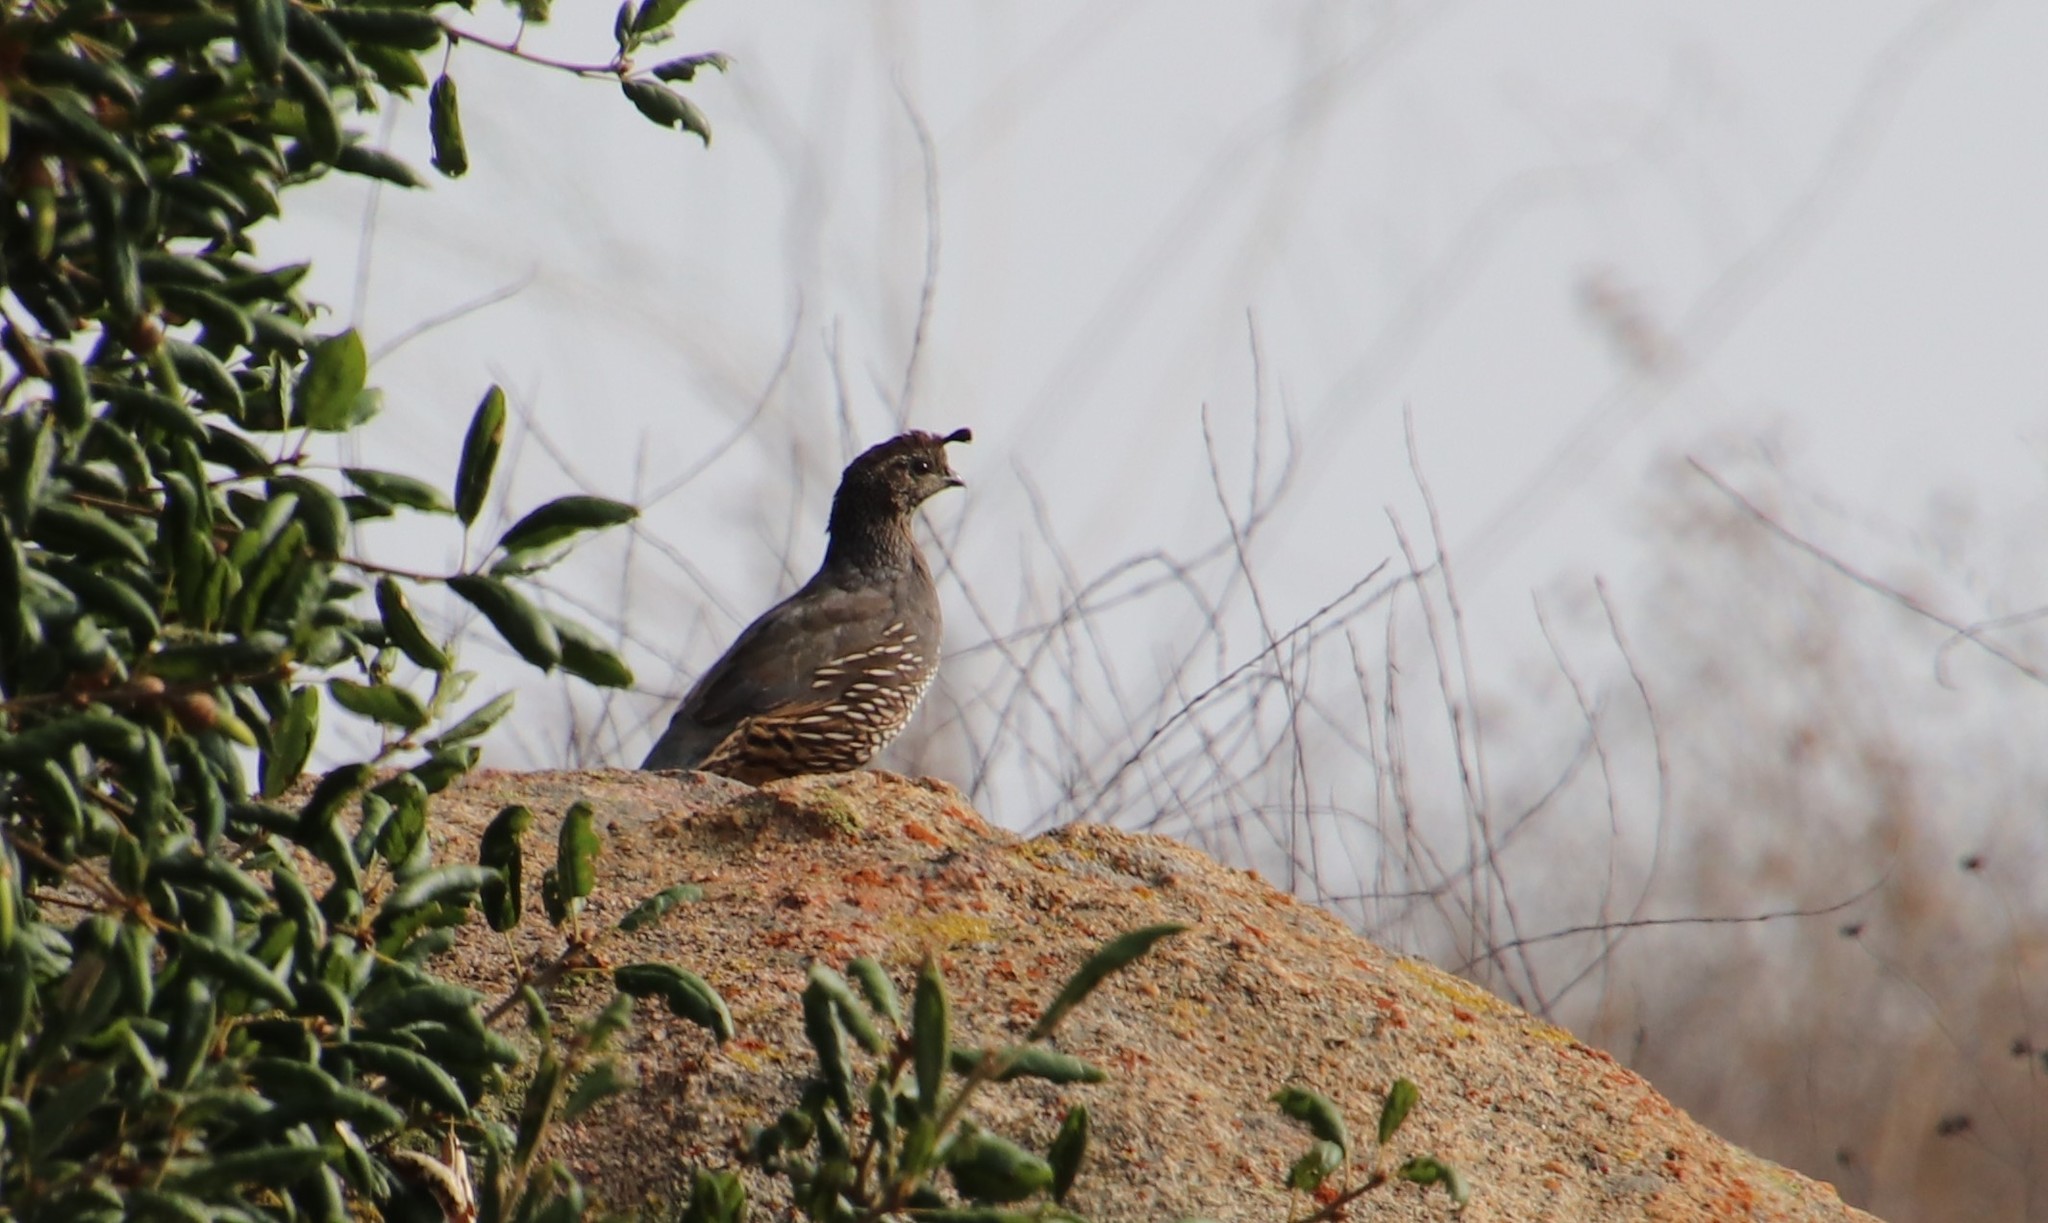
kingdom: Animalia
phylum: Chordata
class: Aves
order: Galliformes
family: Odontophoridae
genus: Callipepla
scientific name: Callipepla californica
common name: California quail
